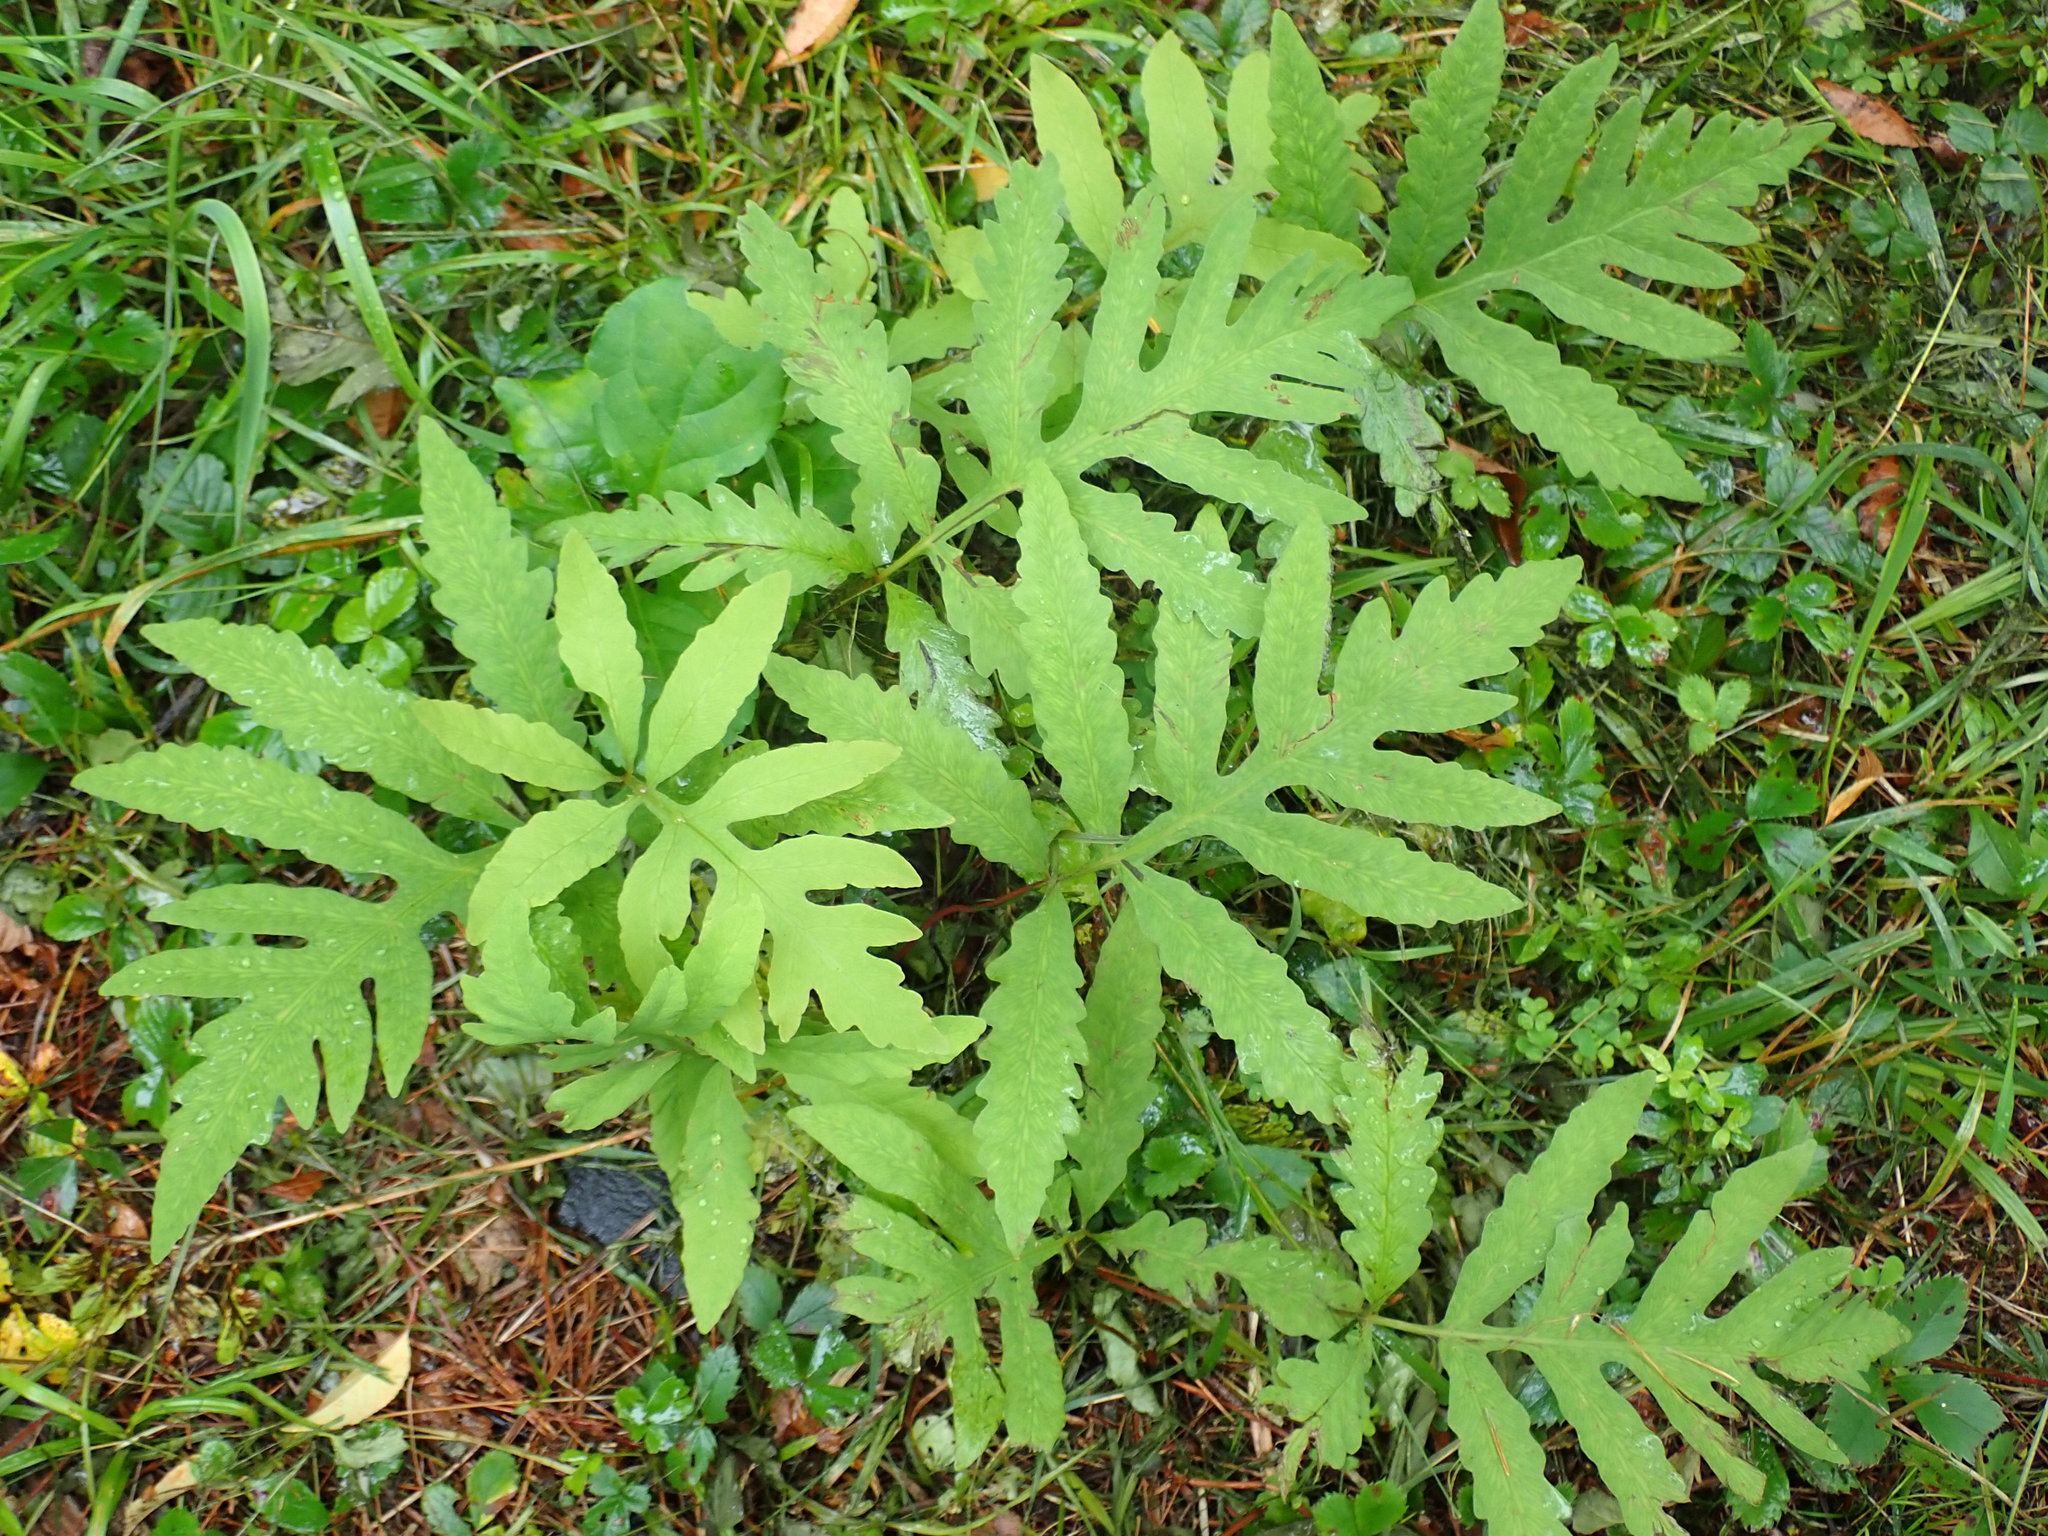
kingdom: Plantae
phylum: Tracheophyta
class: Polypodiopsida
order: Polypodiales
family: Onocleaceae
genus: Onoclea
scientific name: Onoclea sensibilis
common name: Sensitive fern
